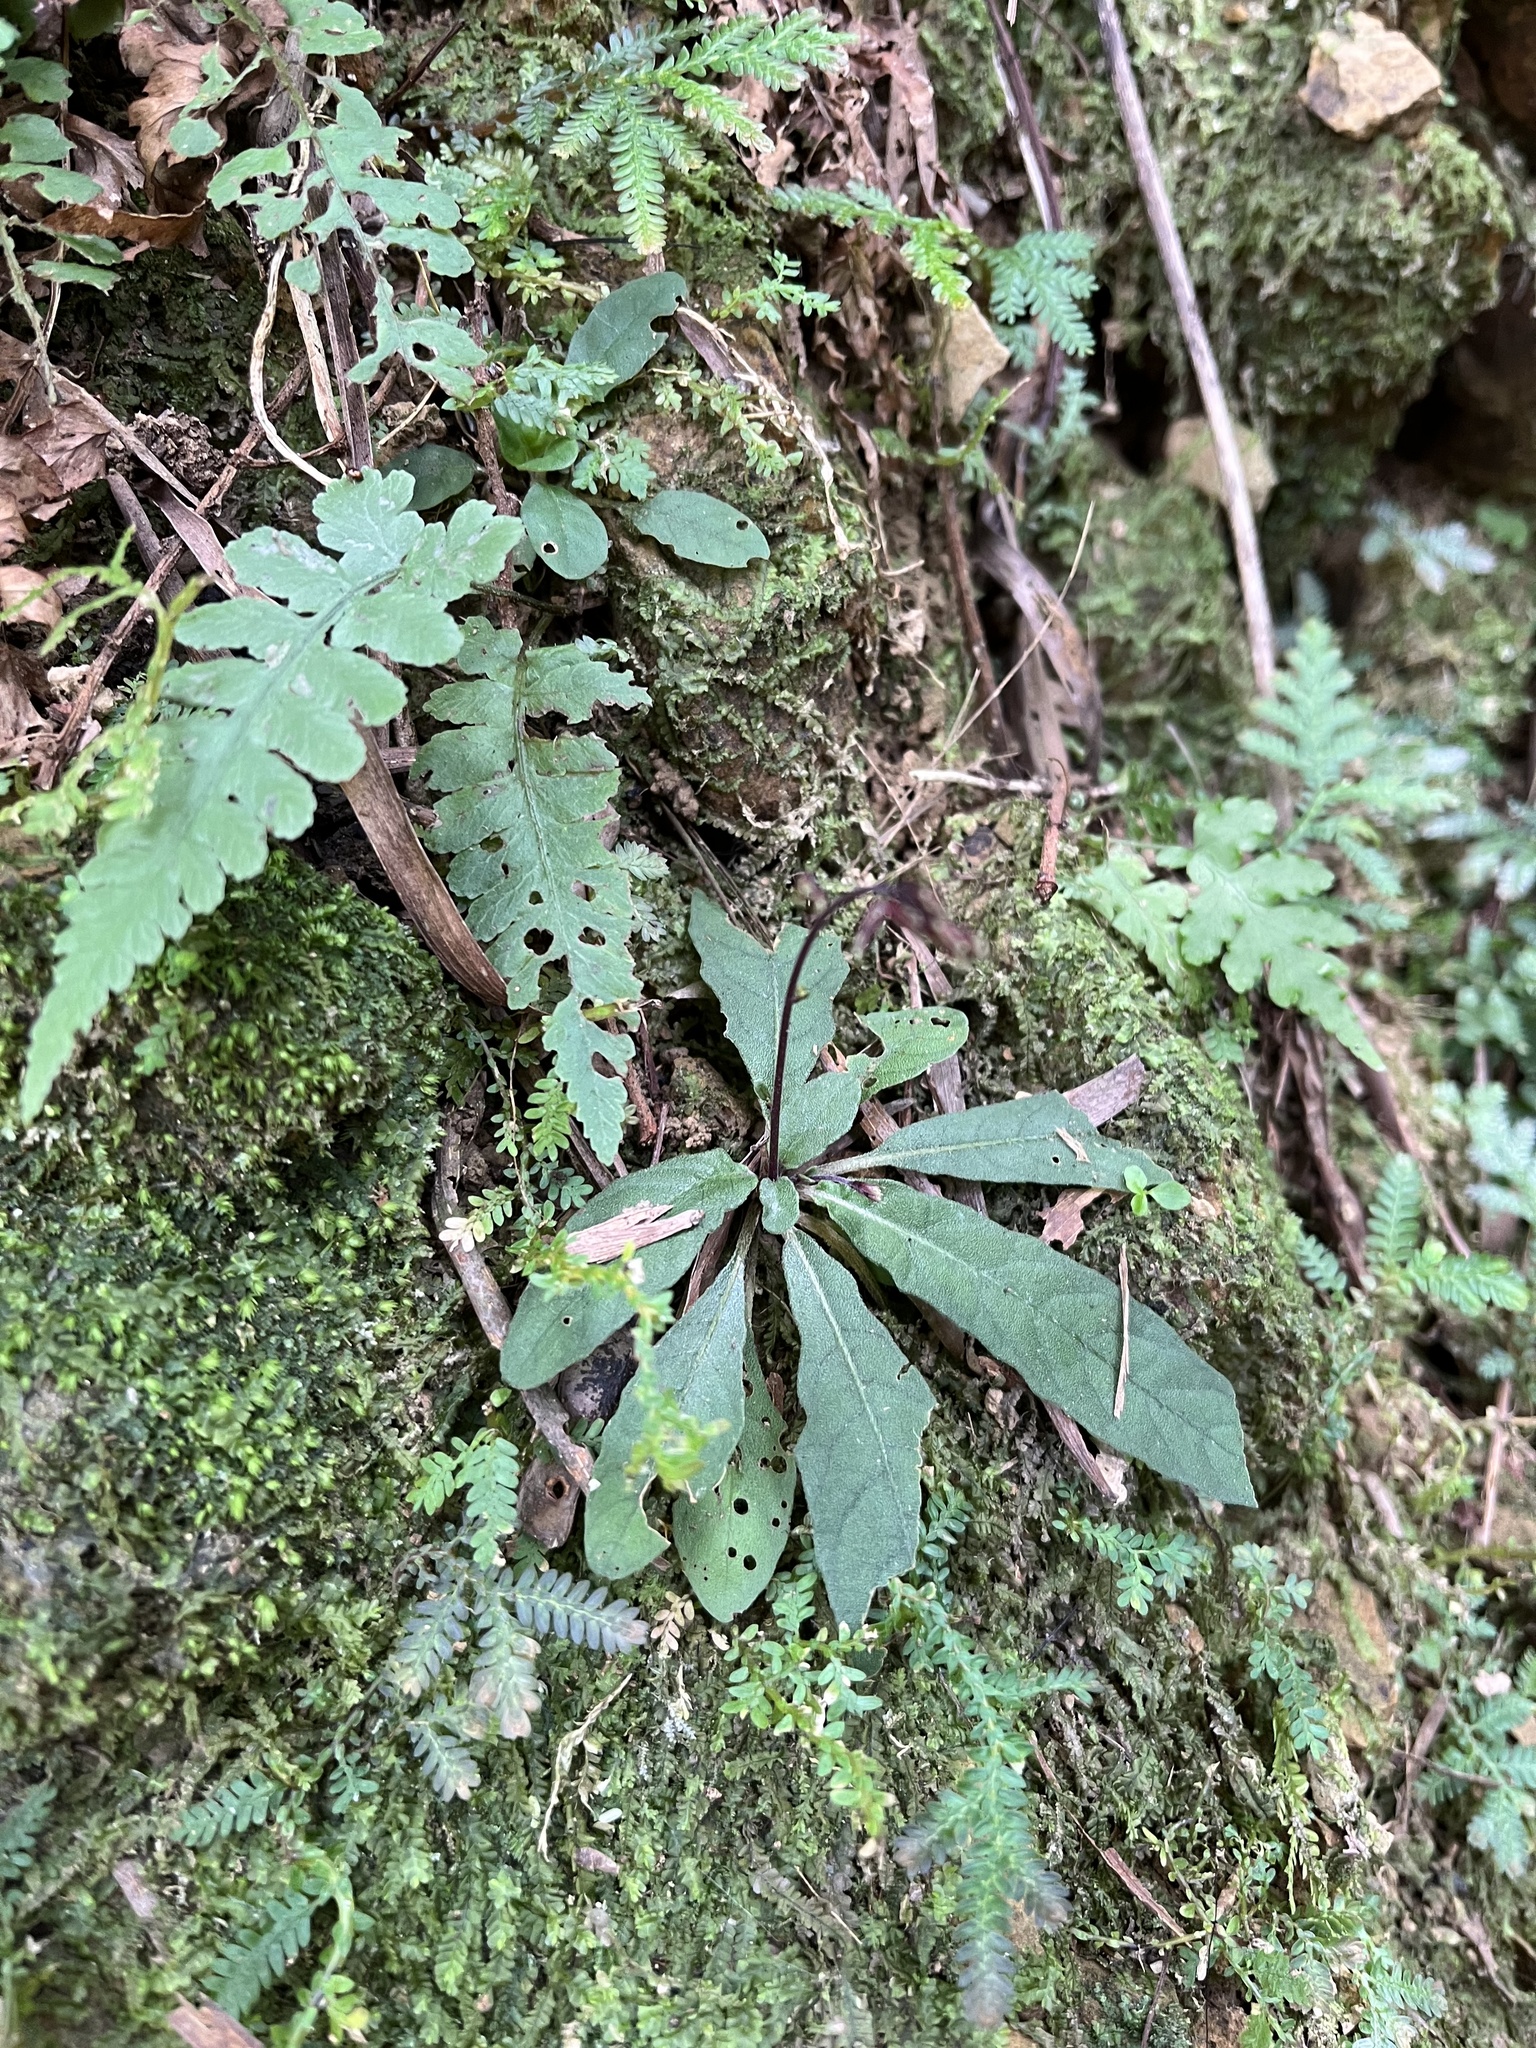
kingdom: Plantae
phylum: Tracheophyta
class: Magnoliopsida
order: Lamiales
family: Acanthaceae
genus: Staurogyne
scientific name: Staurogyne concinnula
